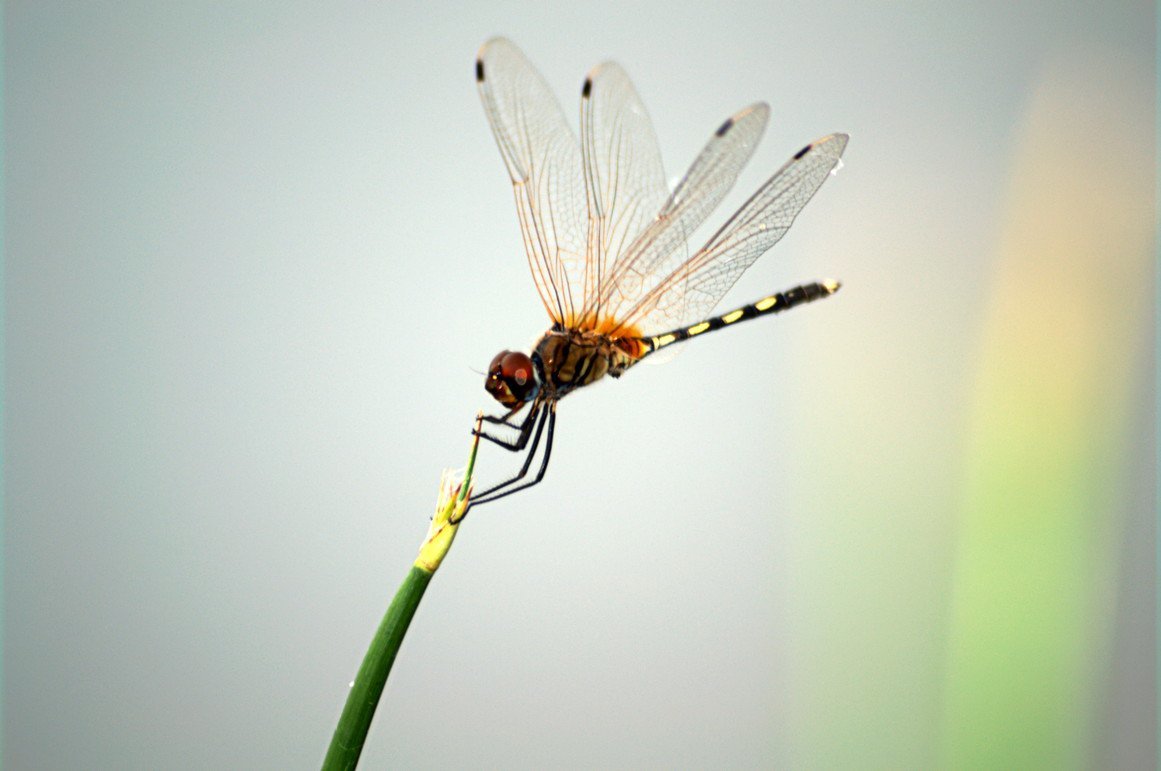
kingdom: Animalia
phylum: Arthropoda
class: Insecta
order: Odonata
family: Libellulidae
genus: Trithemis
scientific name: Trithemis pallidinervis
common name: Dancing dropwing
